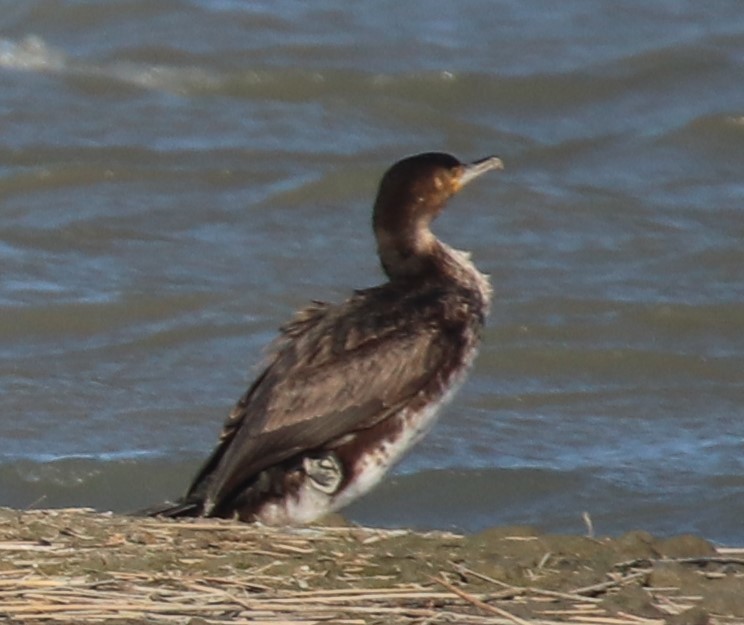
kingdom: Animalia
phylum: Chordata
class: Aves
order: Suliformes
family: Phalacrocoracidae
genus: Phalacrocorax
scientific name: Phalacrocorax carbo
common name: Great cormorant
